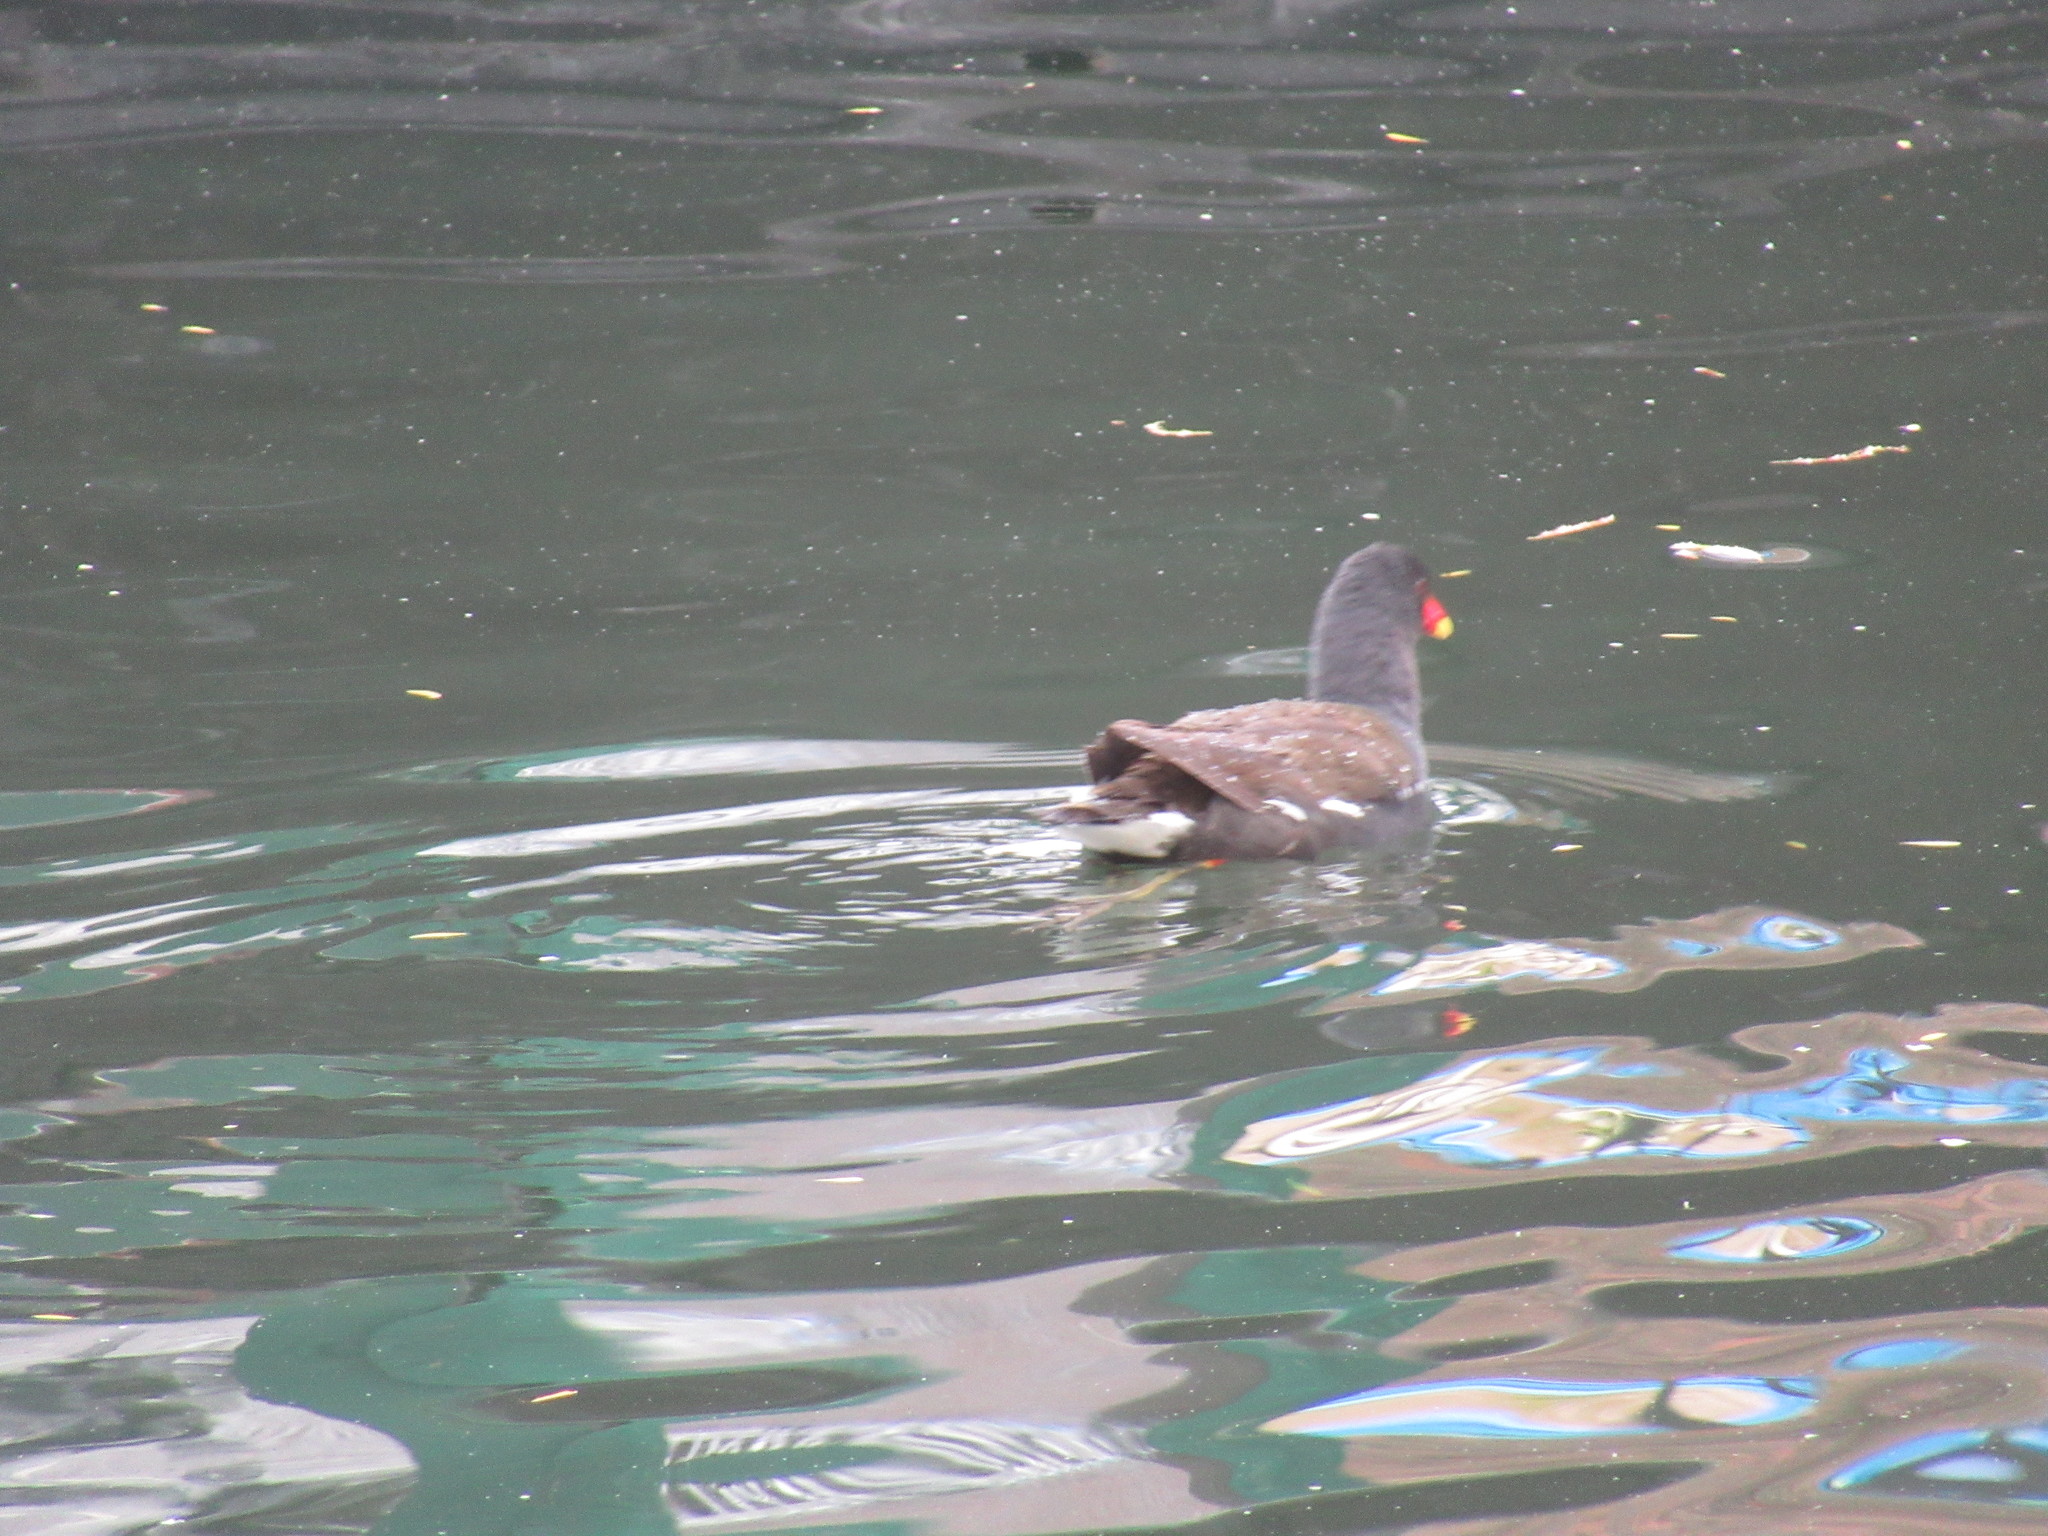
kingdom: Animalia
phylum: Chordata
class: Aves
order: Gruiformes
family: Rallidae
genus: Gallinula
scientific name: Gallinula chloropus
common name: Common moorhen
